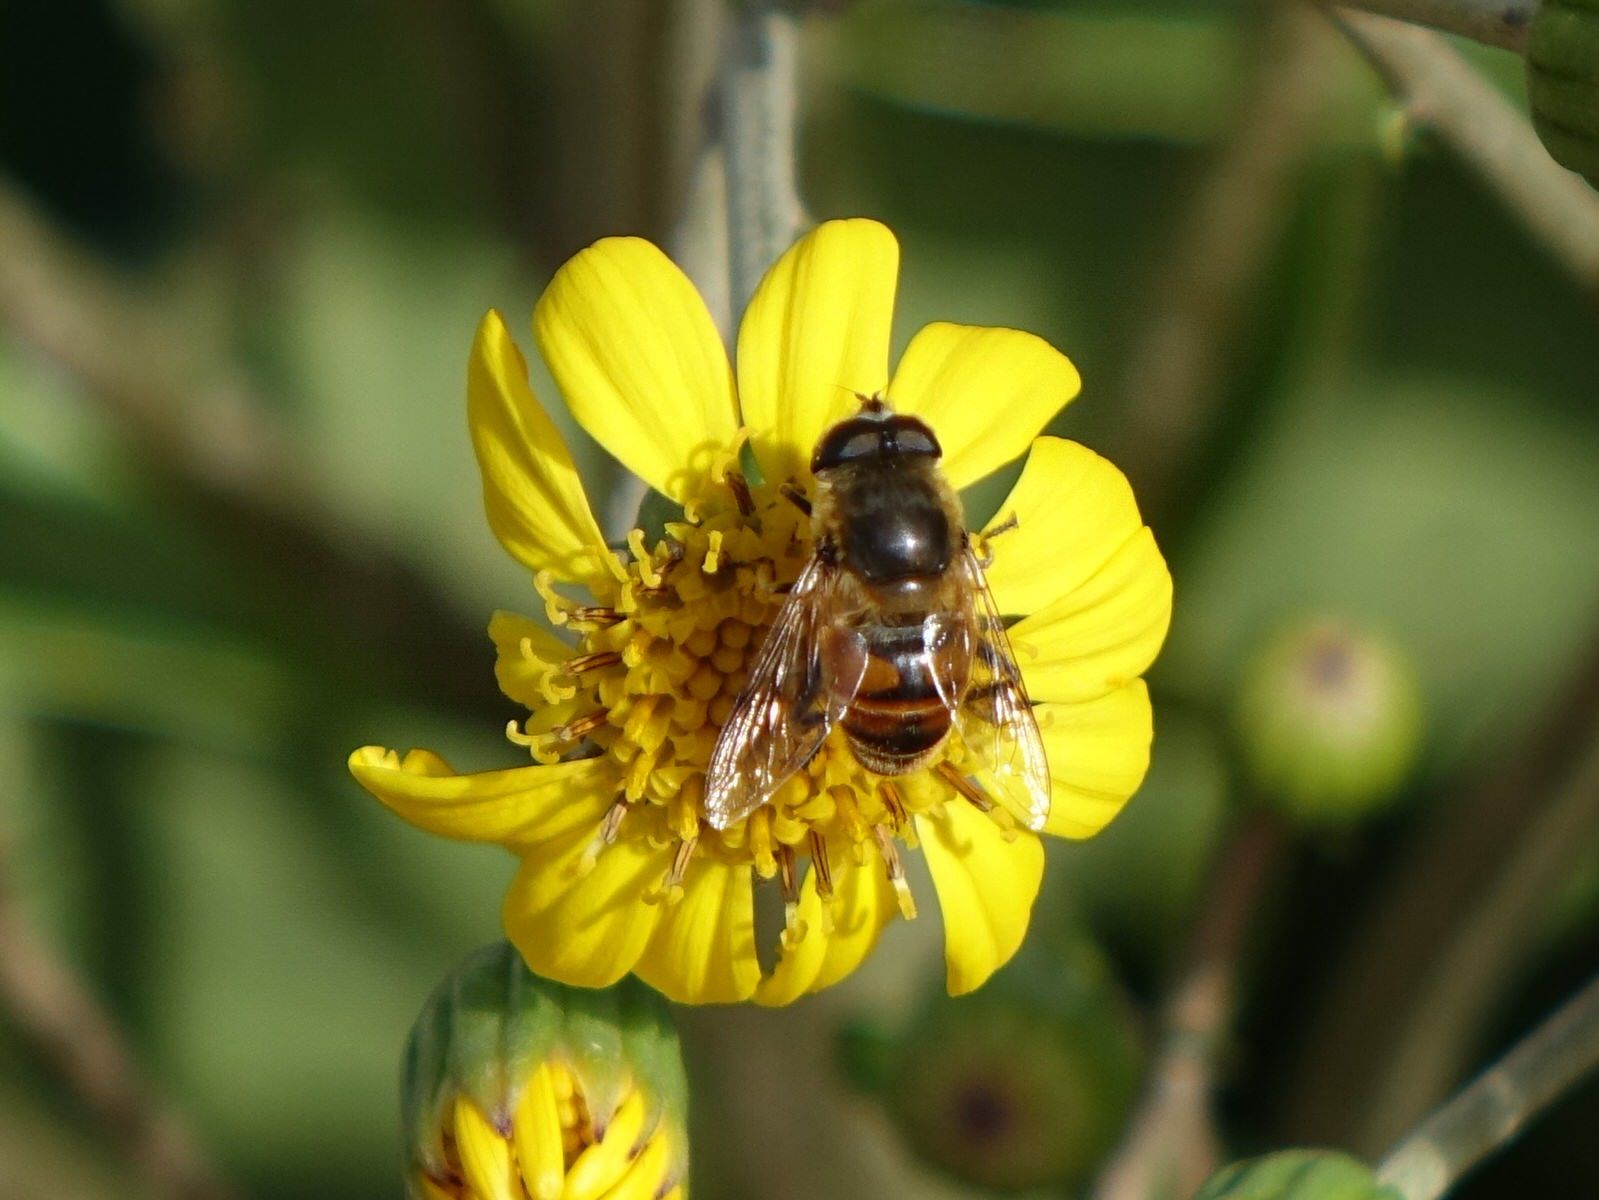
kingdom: Animalia
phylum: Arthropoda
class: Insecta
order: Diptera
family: Syrphidae
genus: Eristalis
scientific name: Eristalis tenax
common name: Drone fly
